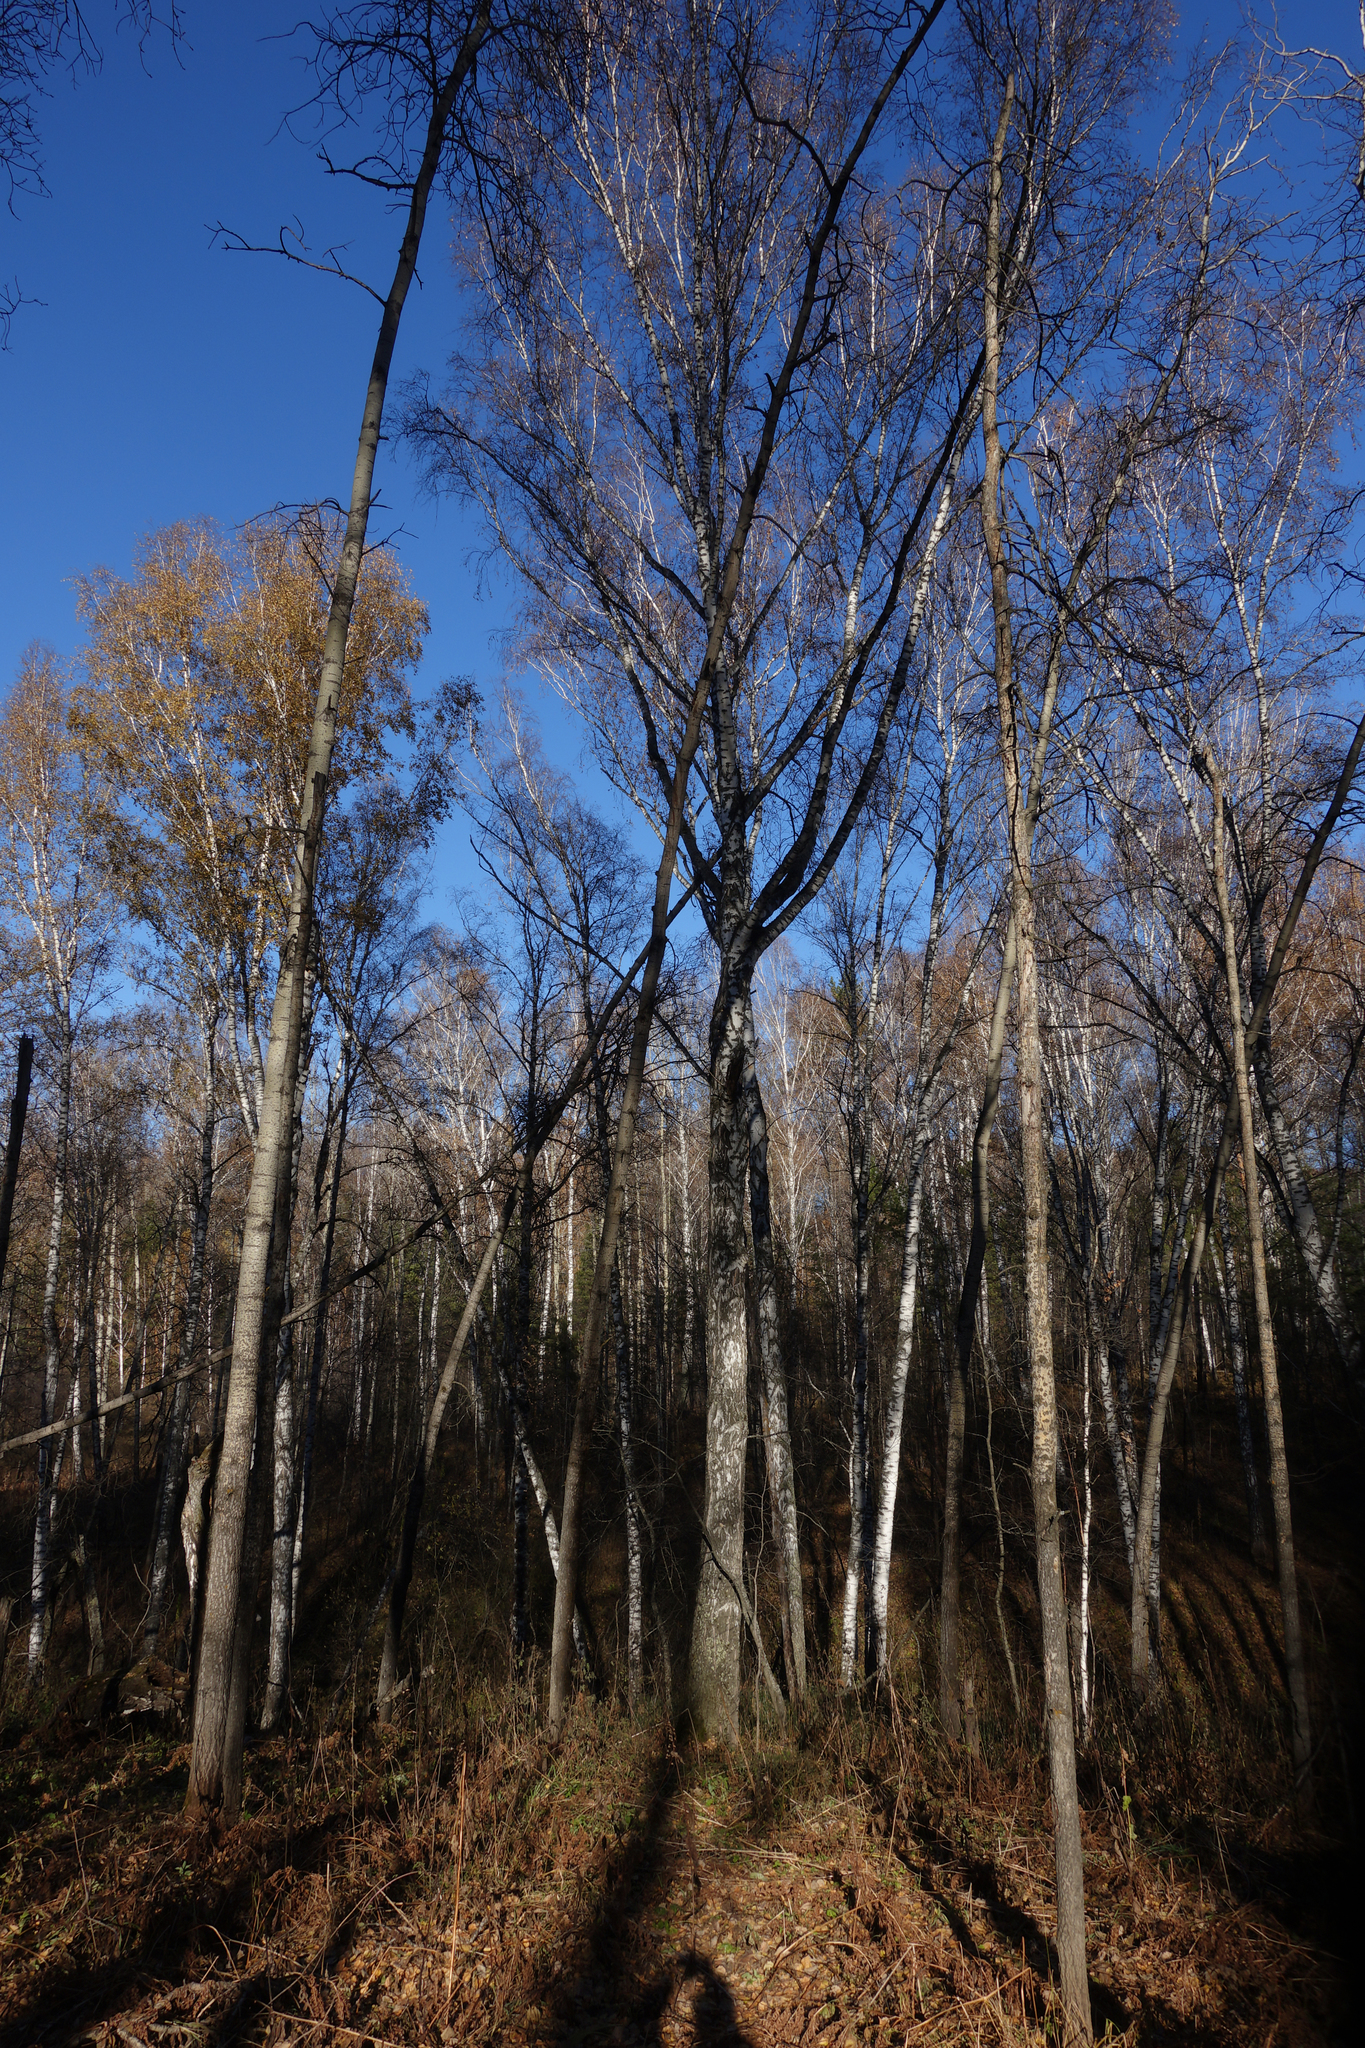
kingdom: Plantae
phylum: Tracheophyta
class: Magnoliopsida
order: Fagales
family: Betulaceae
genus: Betula
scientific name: Betula pendula
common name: Silver birch
